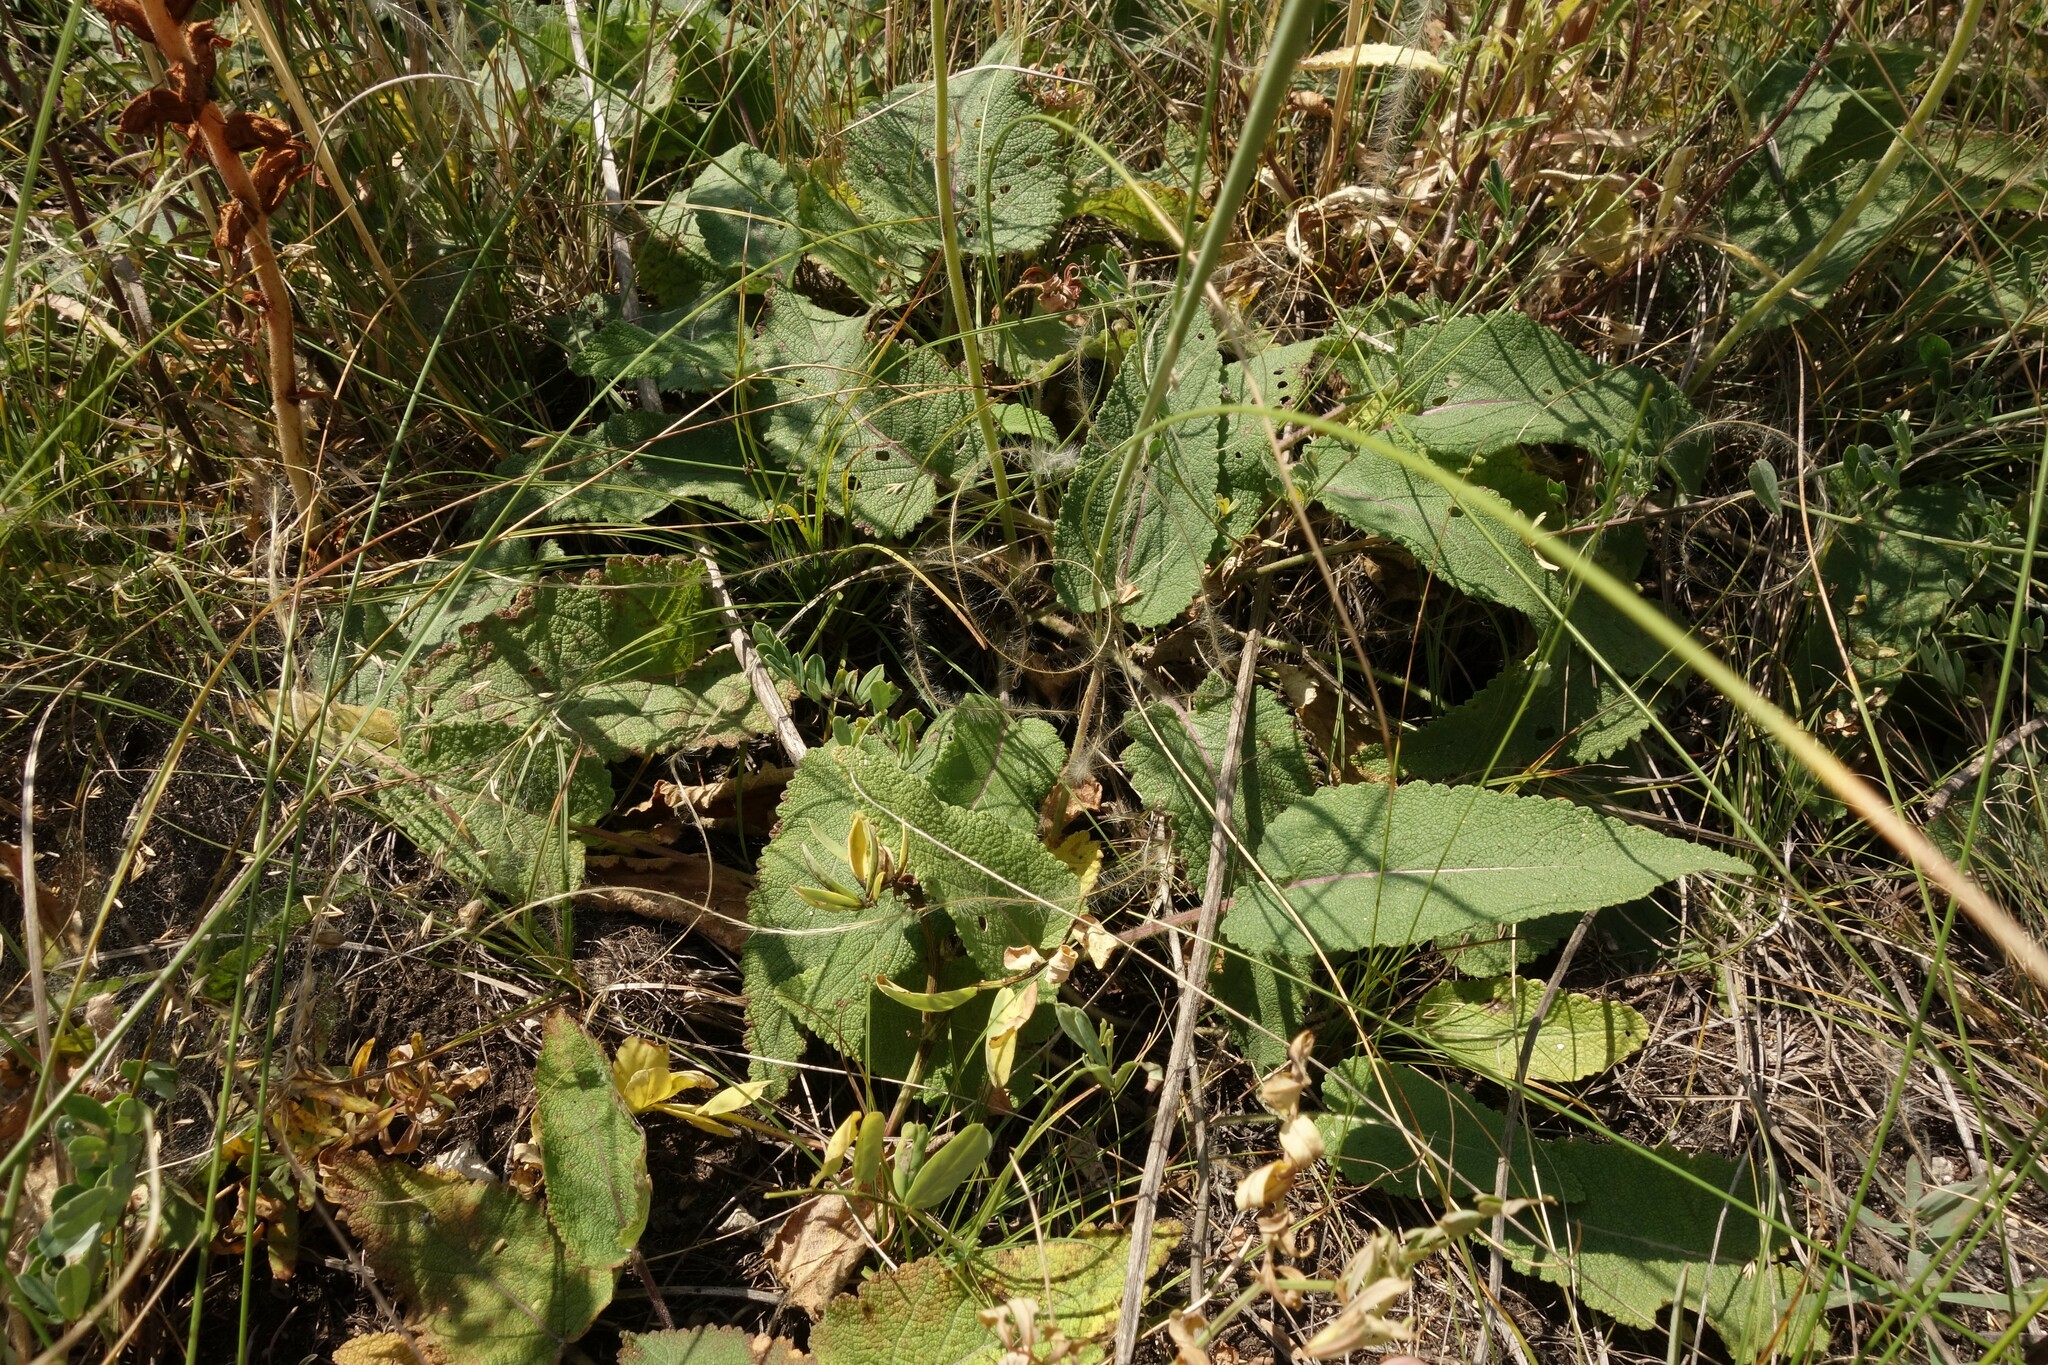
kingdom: Plantae
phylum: Tracheophyta
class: Magnoliopsida
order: Lamiales
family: Orobanchaceae
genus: Orobanche
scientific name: Orobanche alba
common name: Thyme broomrape
